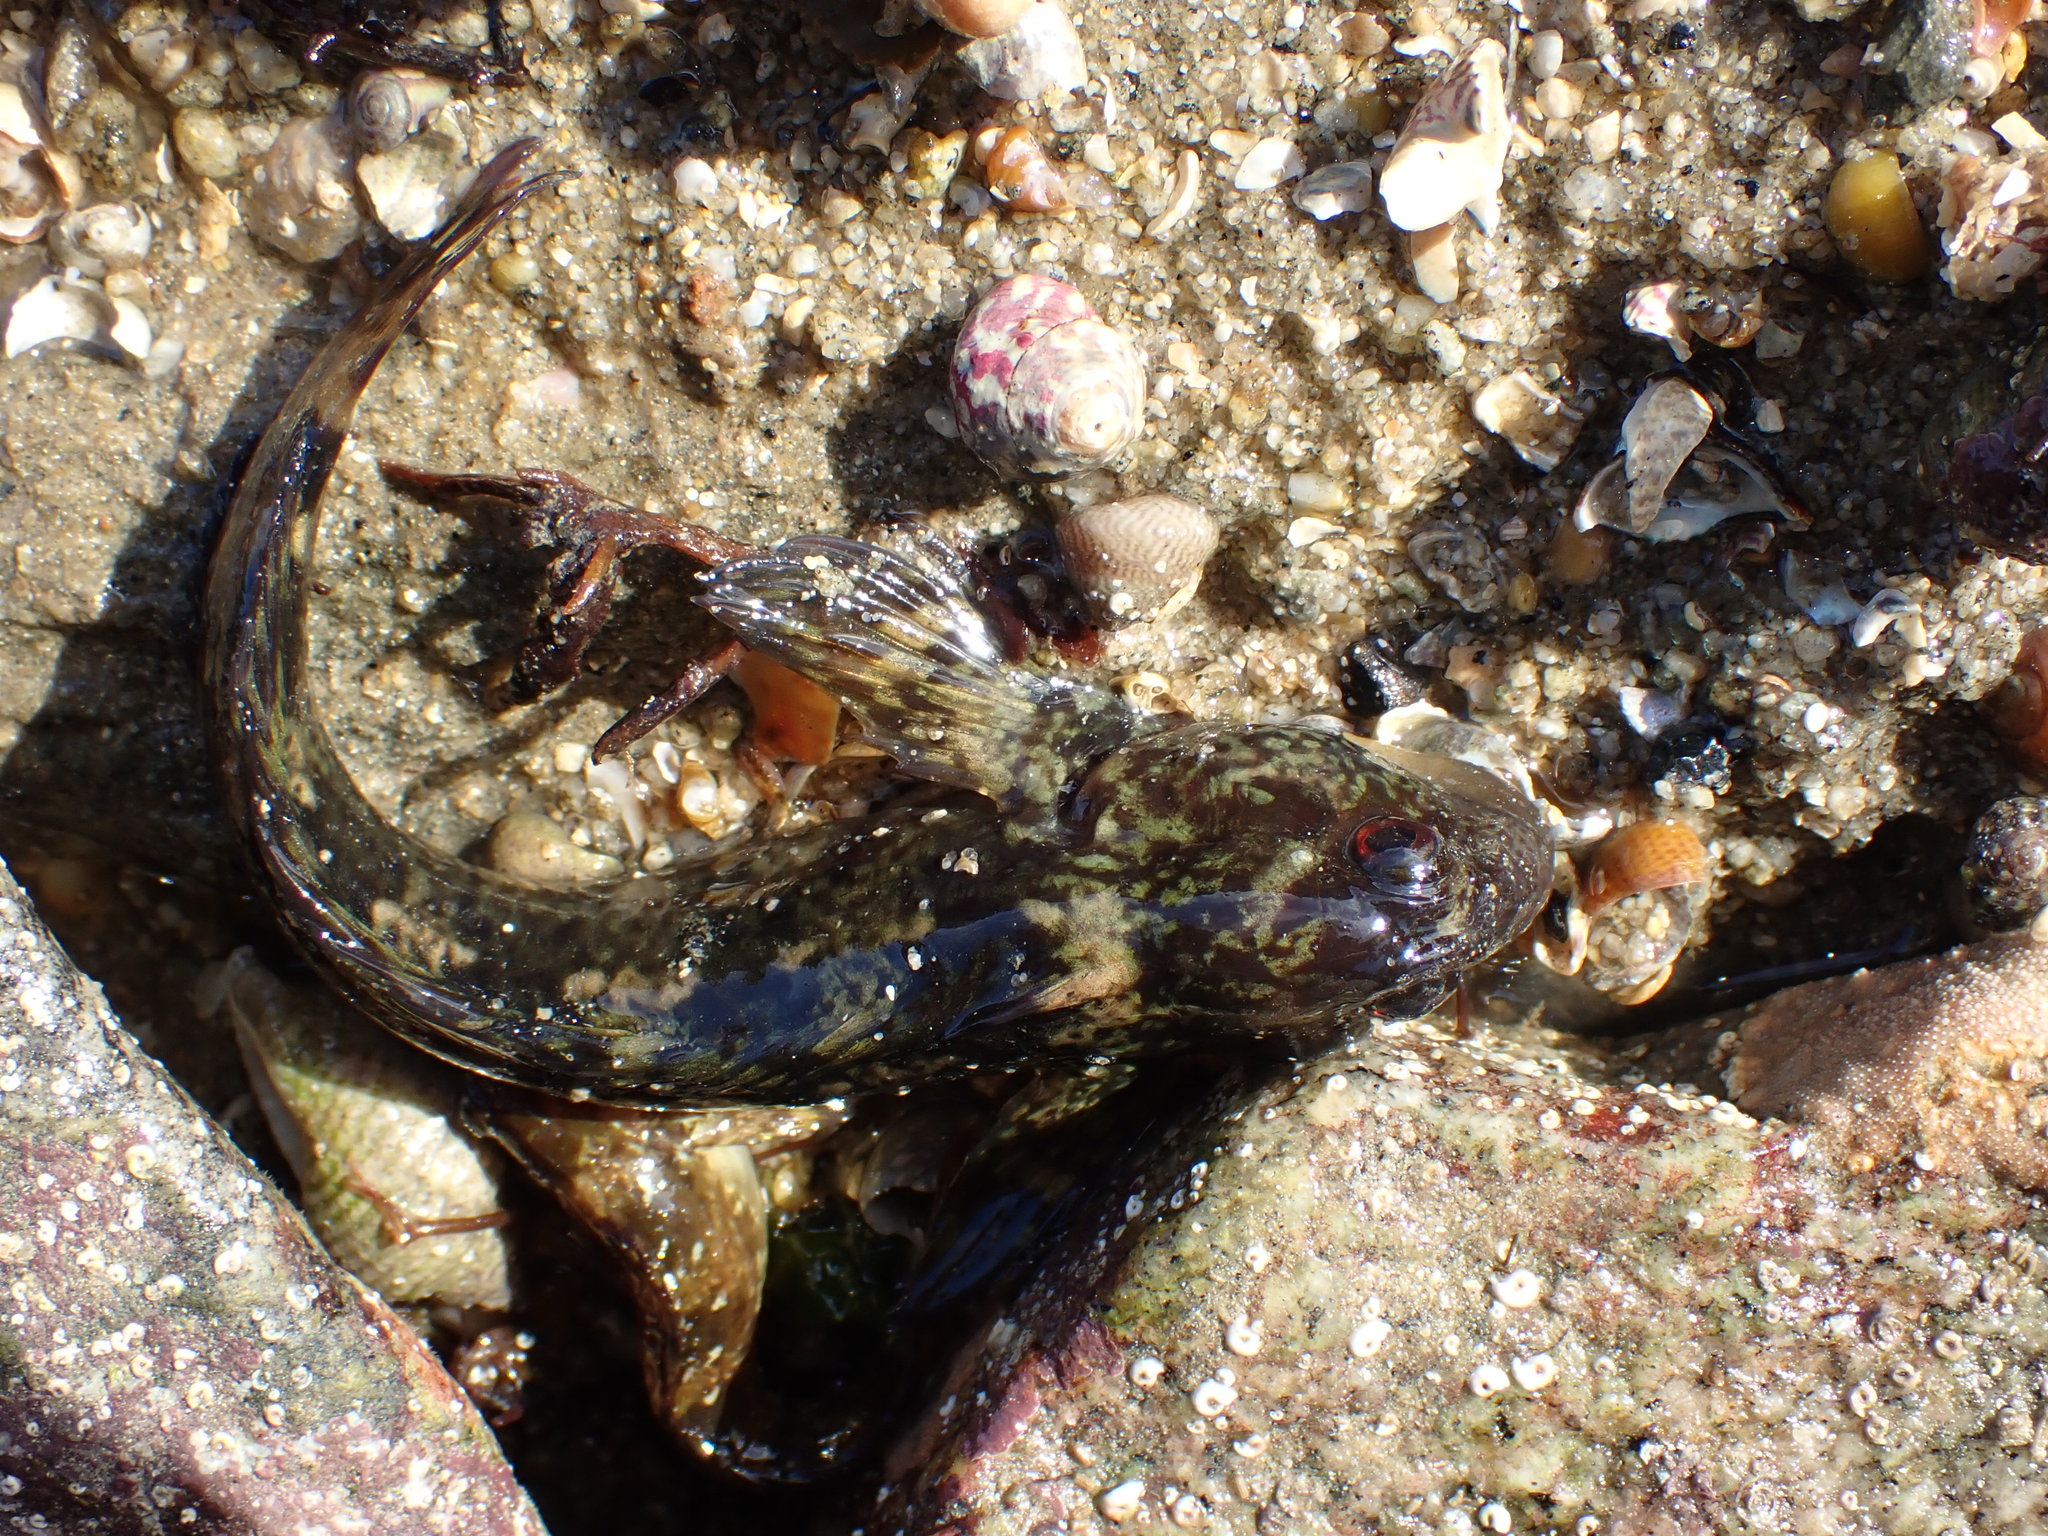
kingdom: Animalia
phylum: Chordata
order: Perciformes
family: Blenniidae
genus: Lipophrys
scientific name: Lipophrys pholis
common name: Shanny
